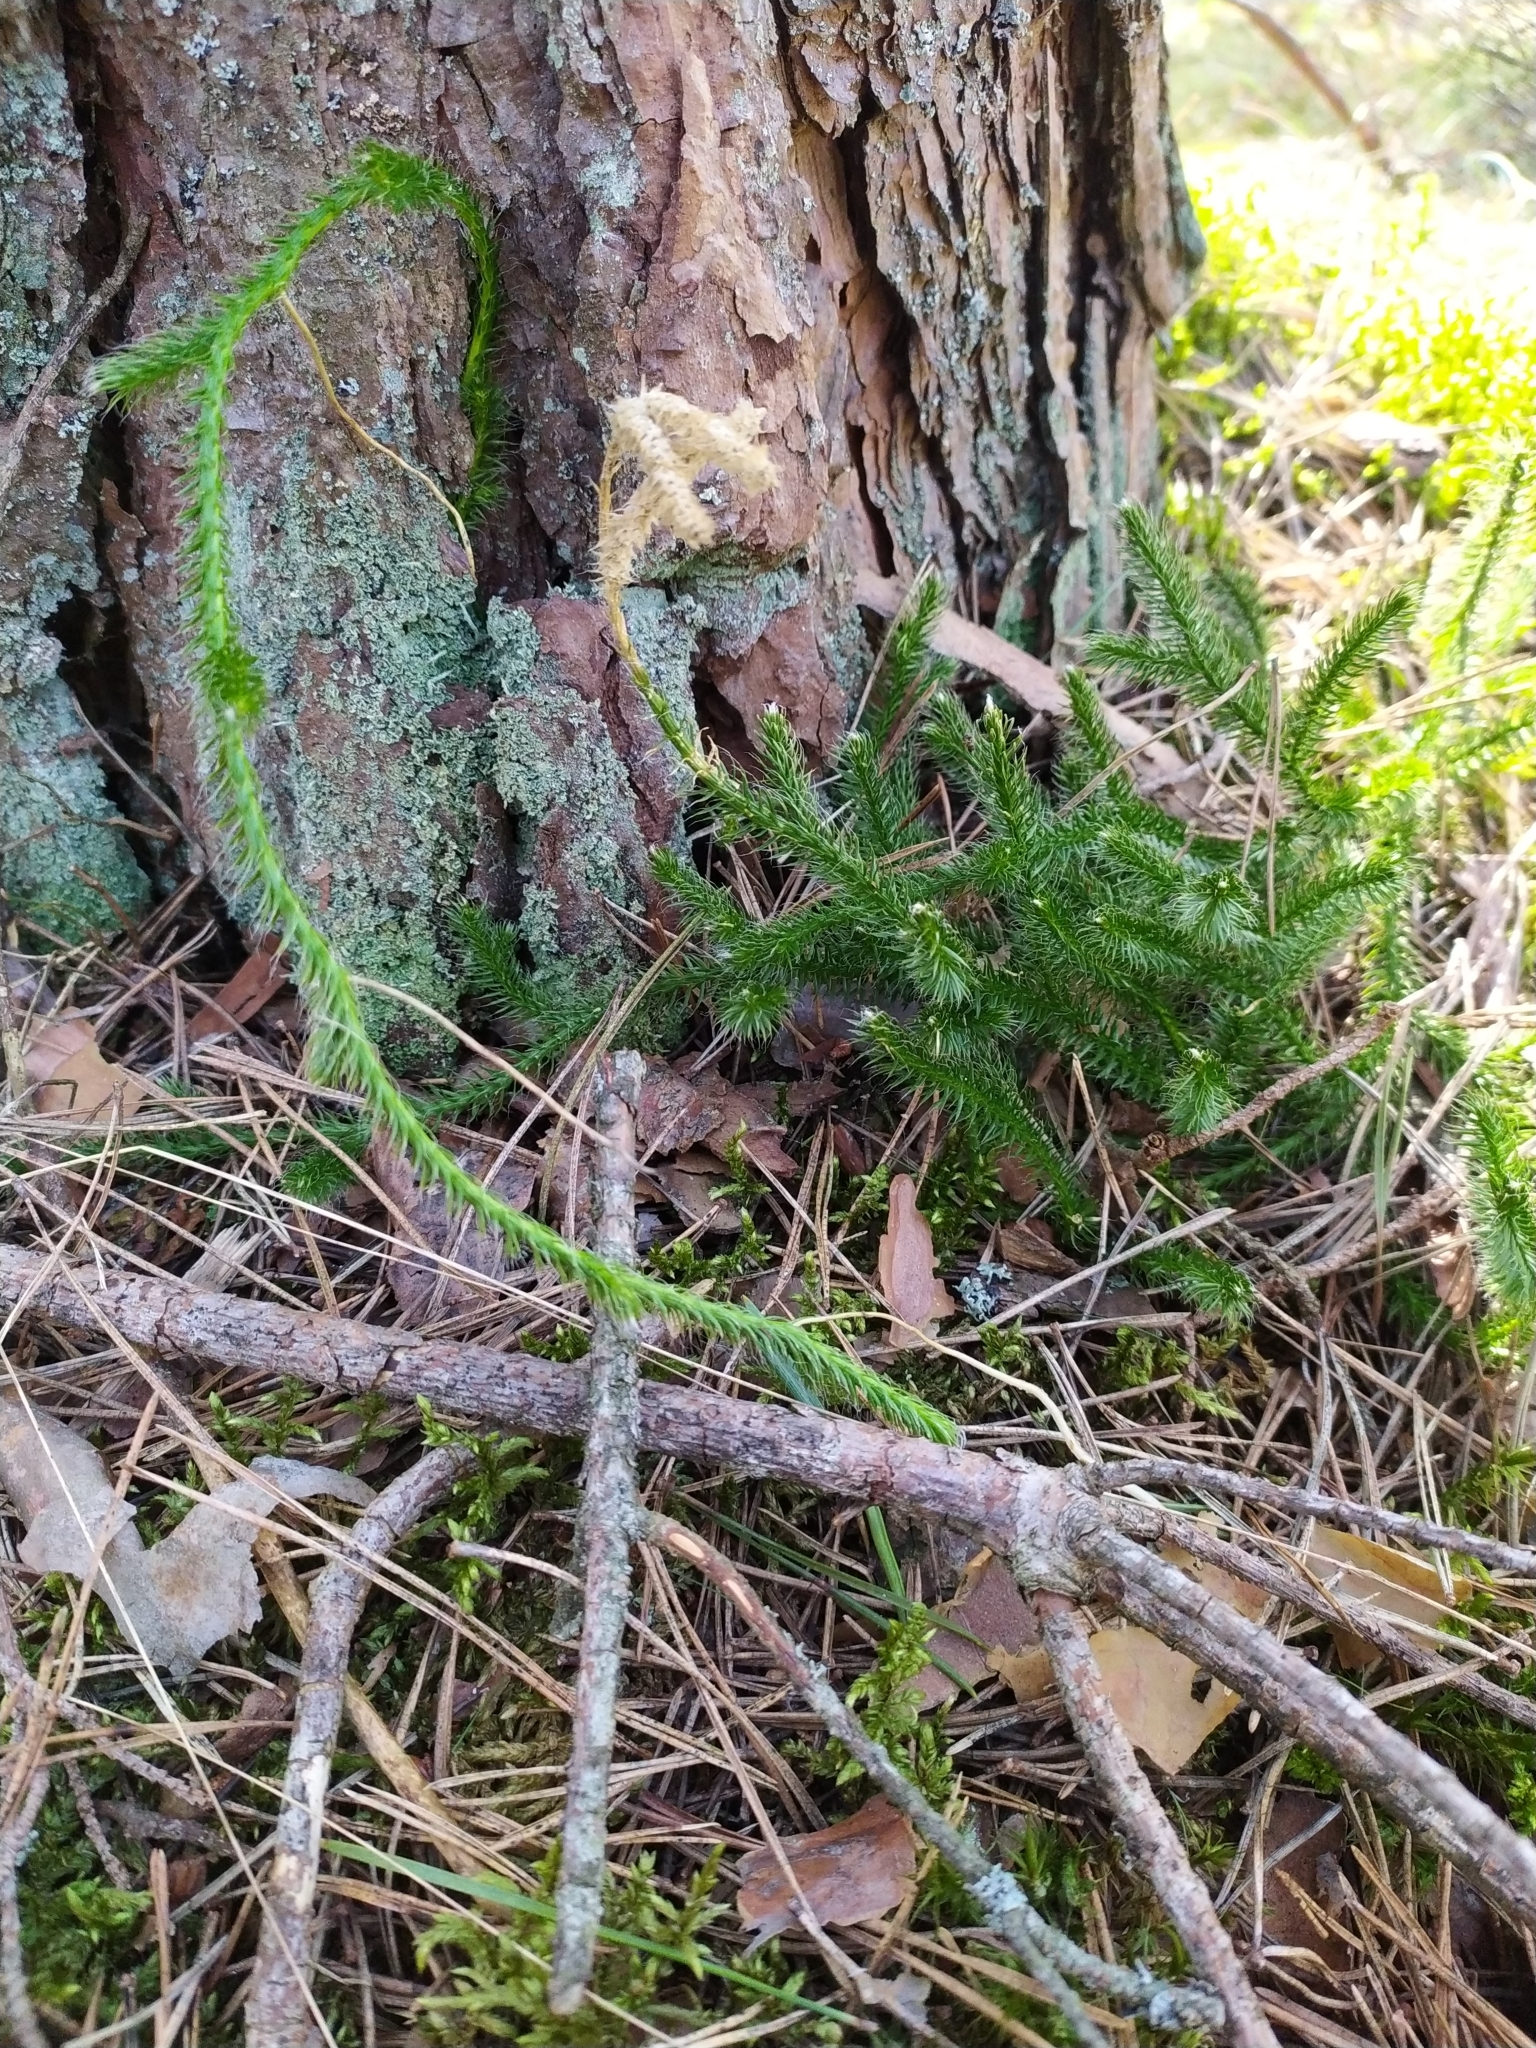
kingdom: Plantae
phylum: Tracheophyta
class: Lycopodiopsida
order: Lycopodiales
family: Lycopodiaceae
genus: Lycopodium
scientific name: Lycopodium clavatum
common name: Stag's-horn clubmoss
